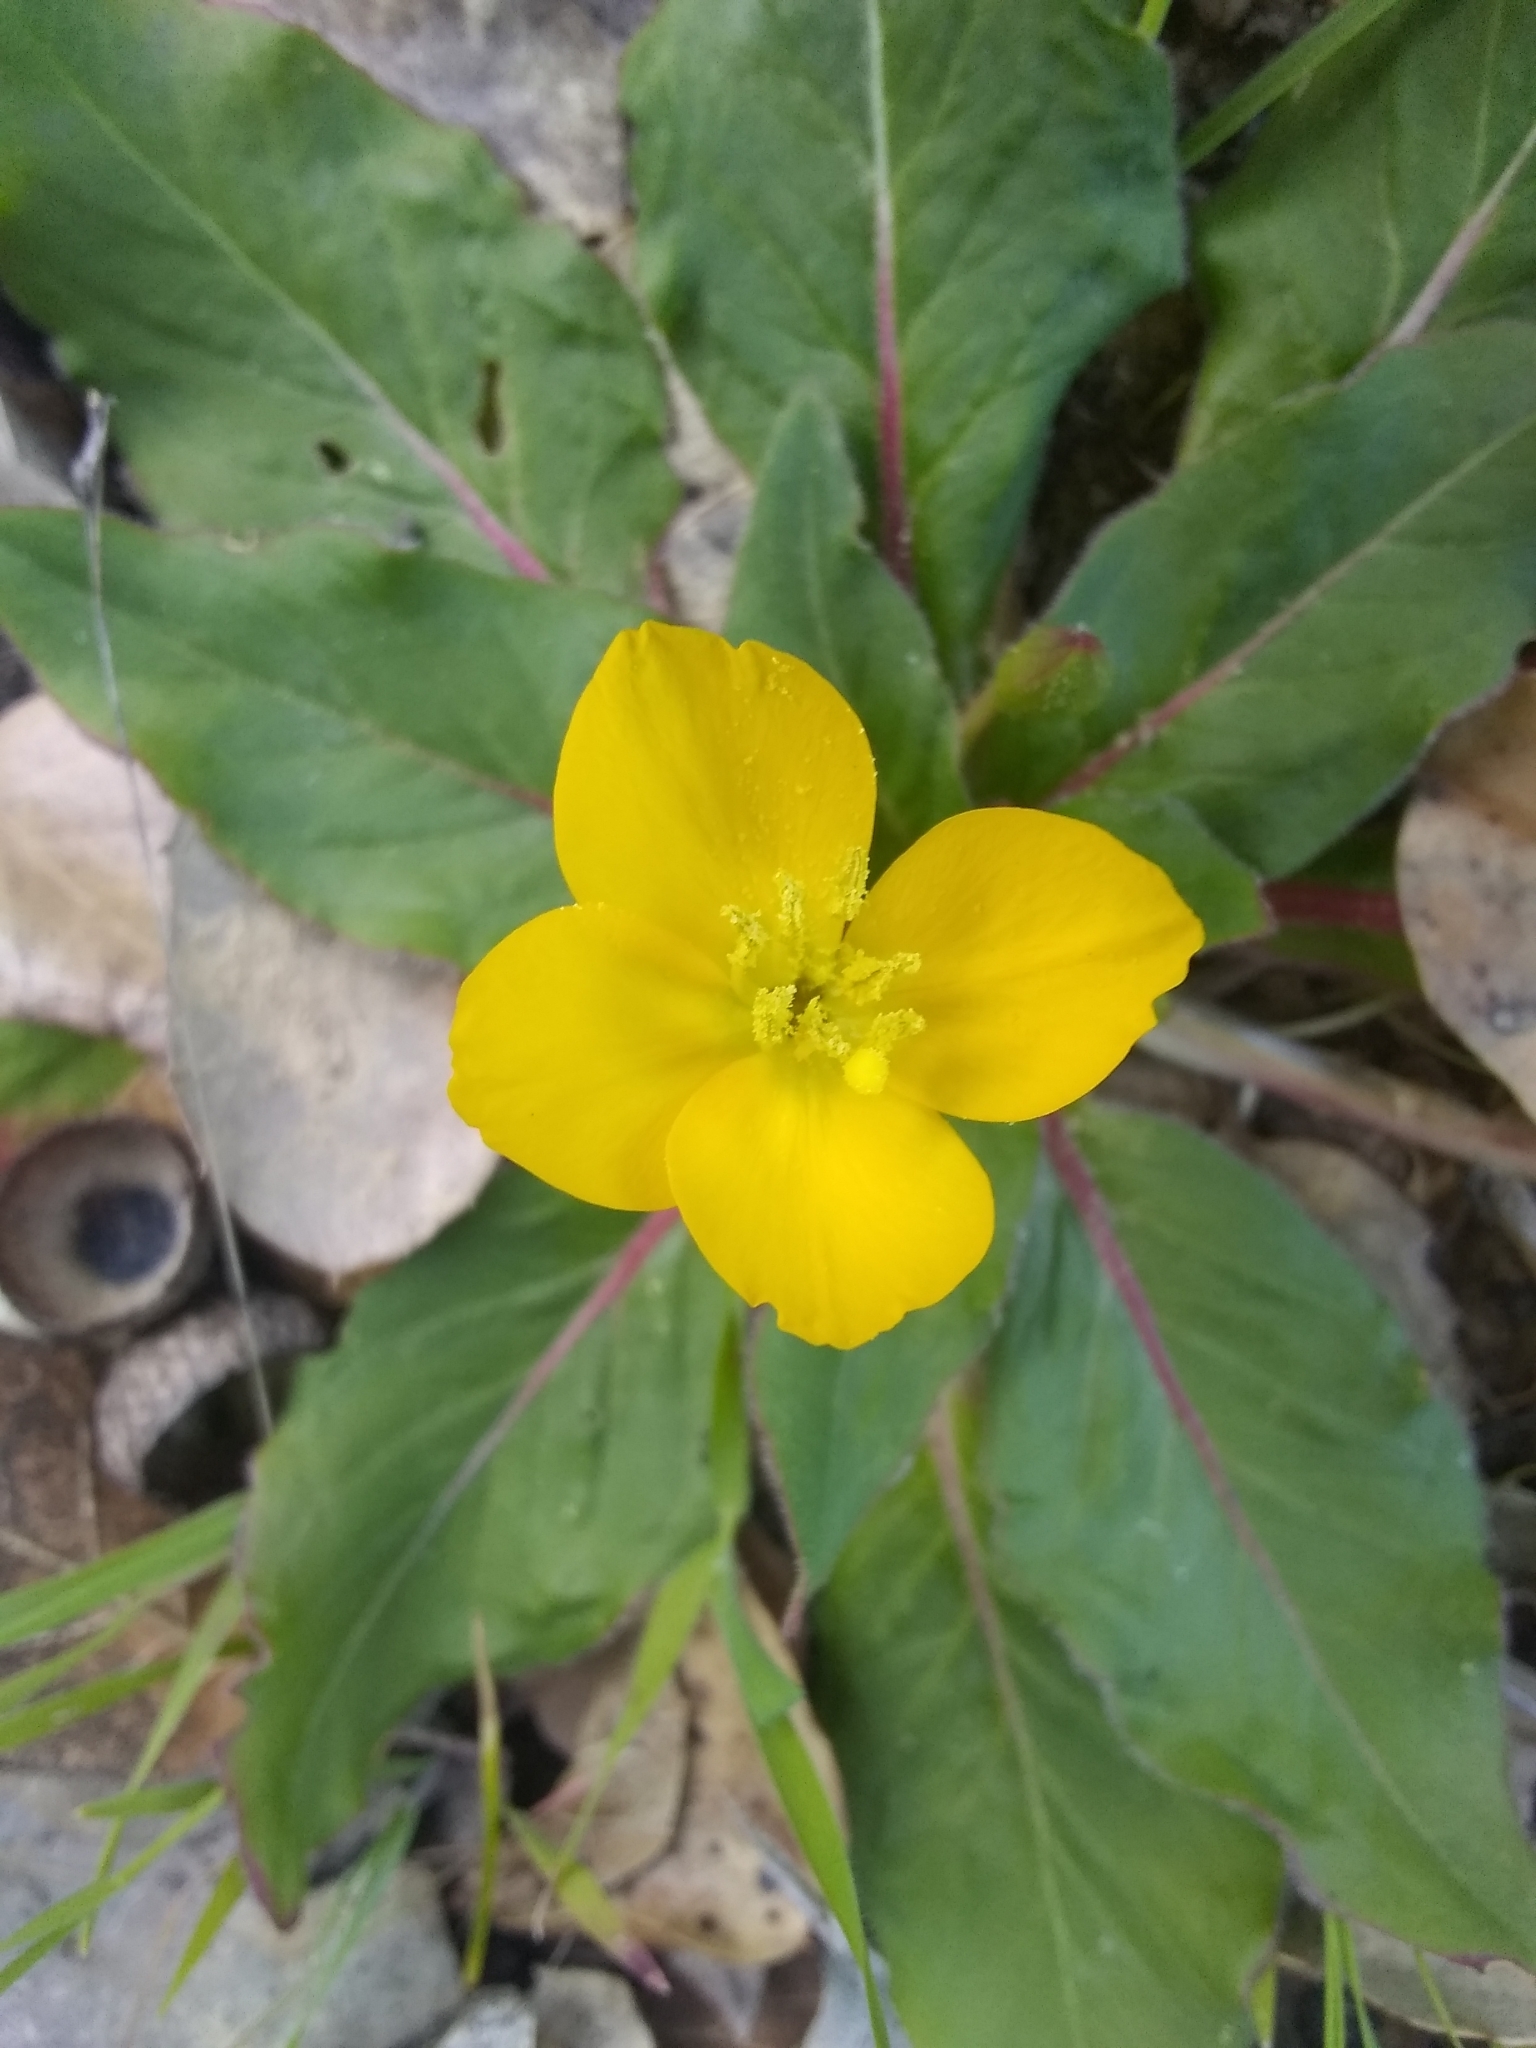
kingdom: Plantae
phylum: Tracheophyta
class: Magnoliopsida
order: Myrtales
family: Onagraceae
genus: Taraxia
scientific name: Taraxia ovata
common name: Goldeneggs
